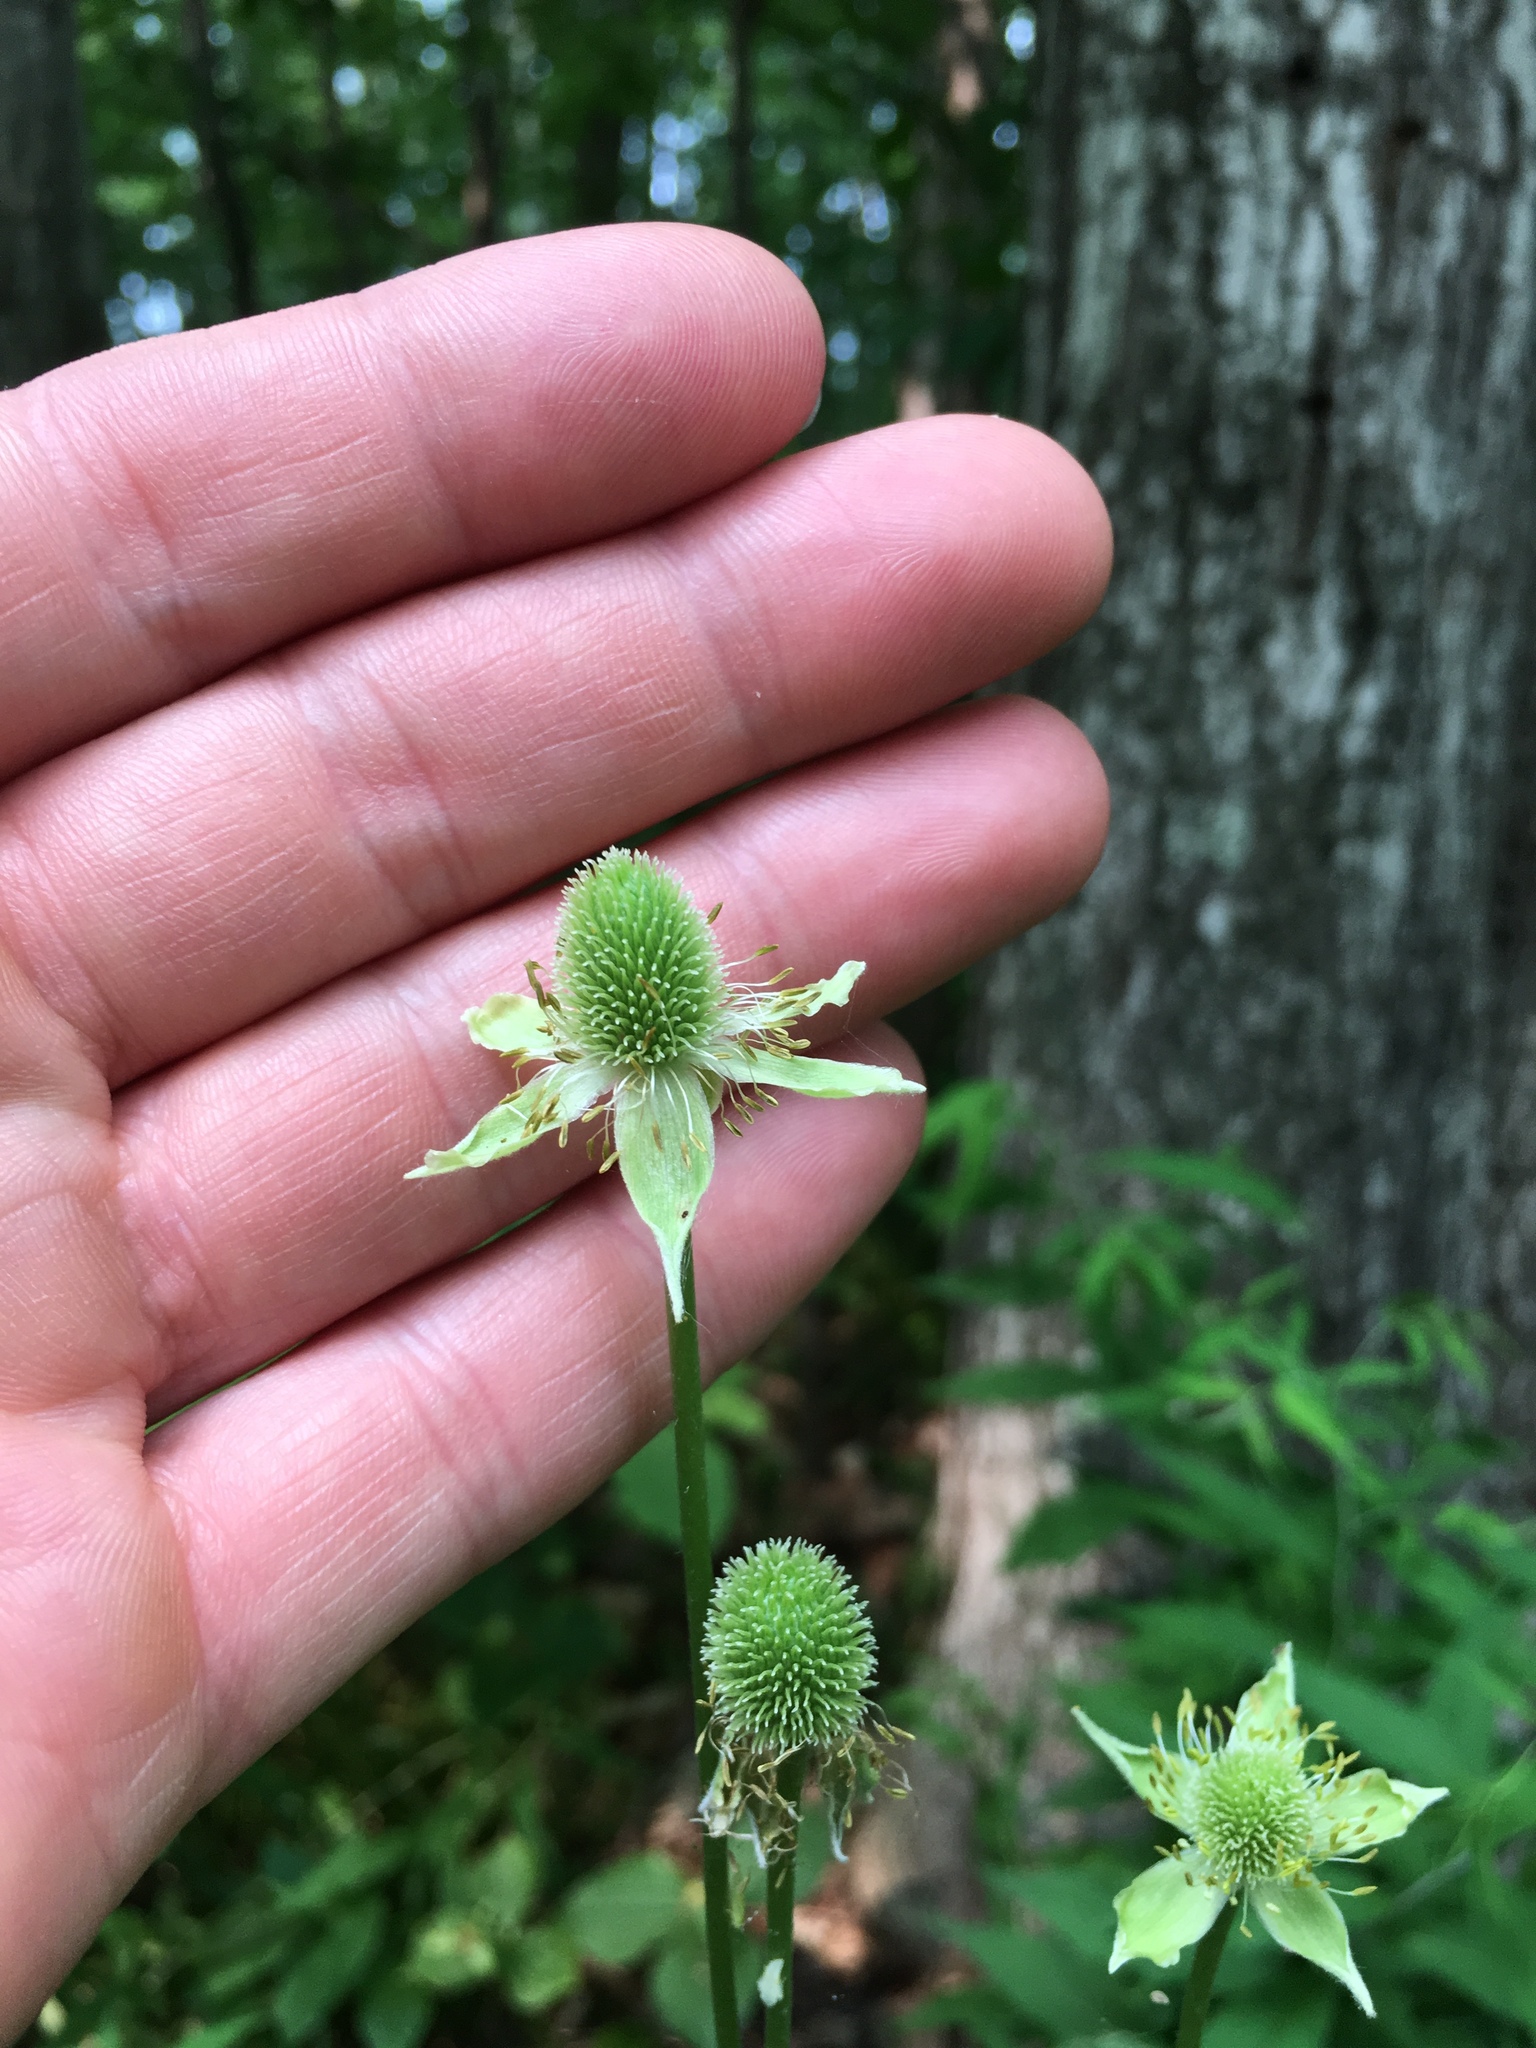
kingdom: Plantae
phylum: Tracheophyta
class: Magnoliopsida
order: Ranunculales
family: Ranunculaceae
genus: Anemone
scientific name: Anemone virginiana
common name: Tall anemone
